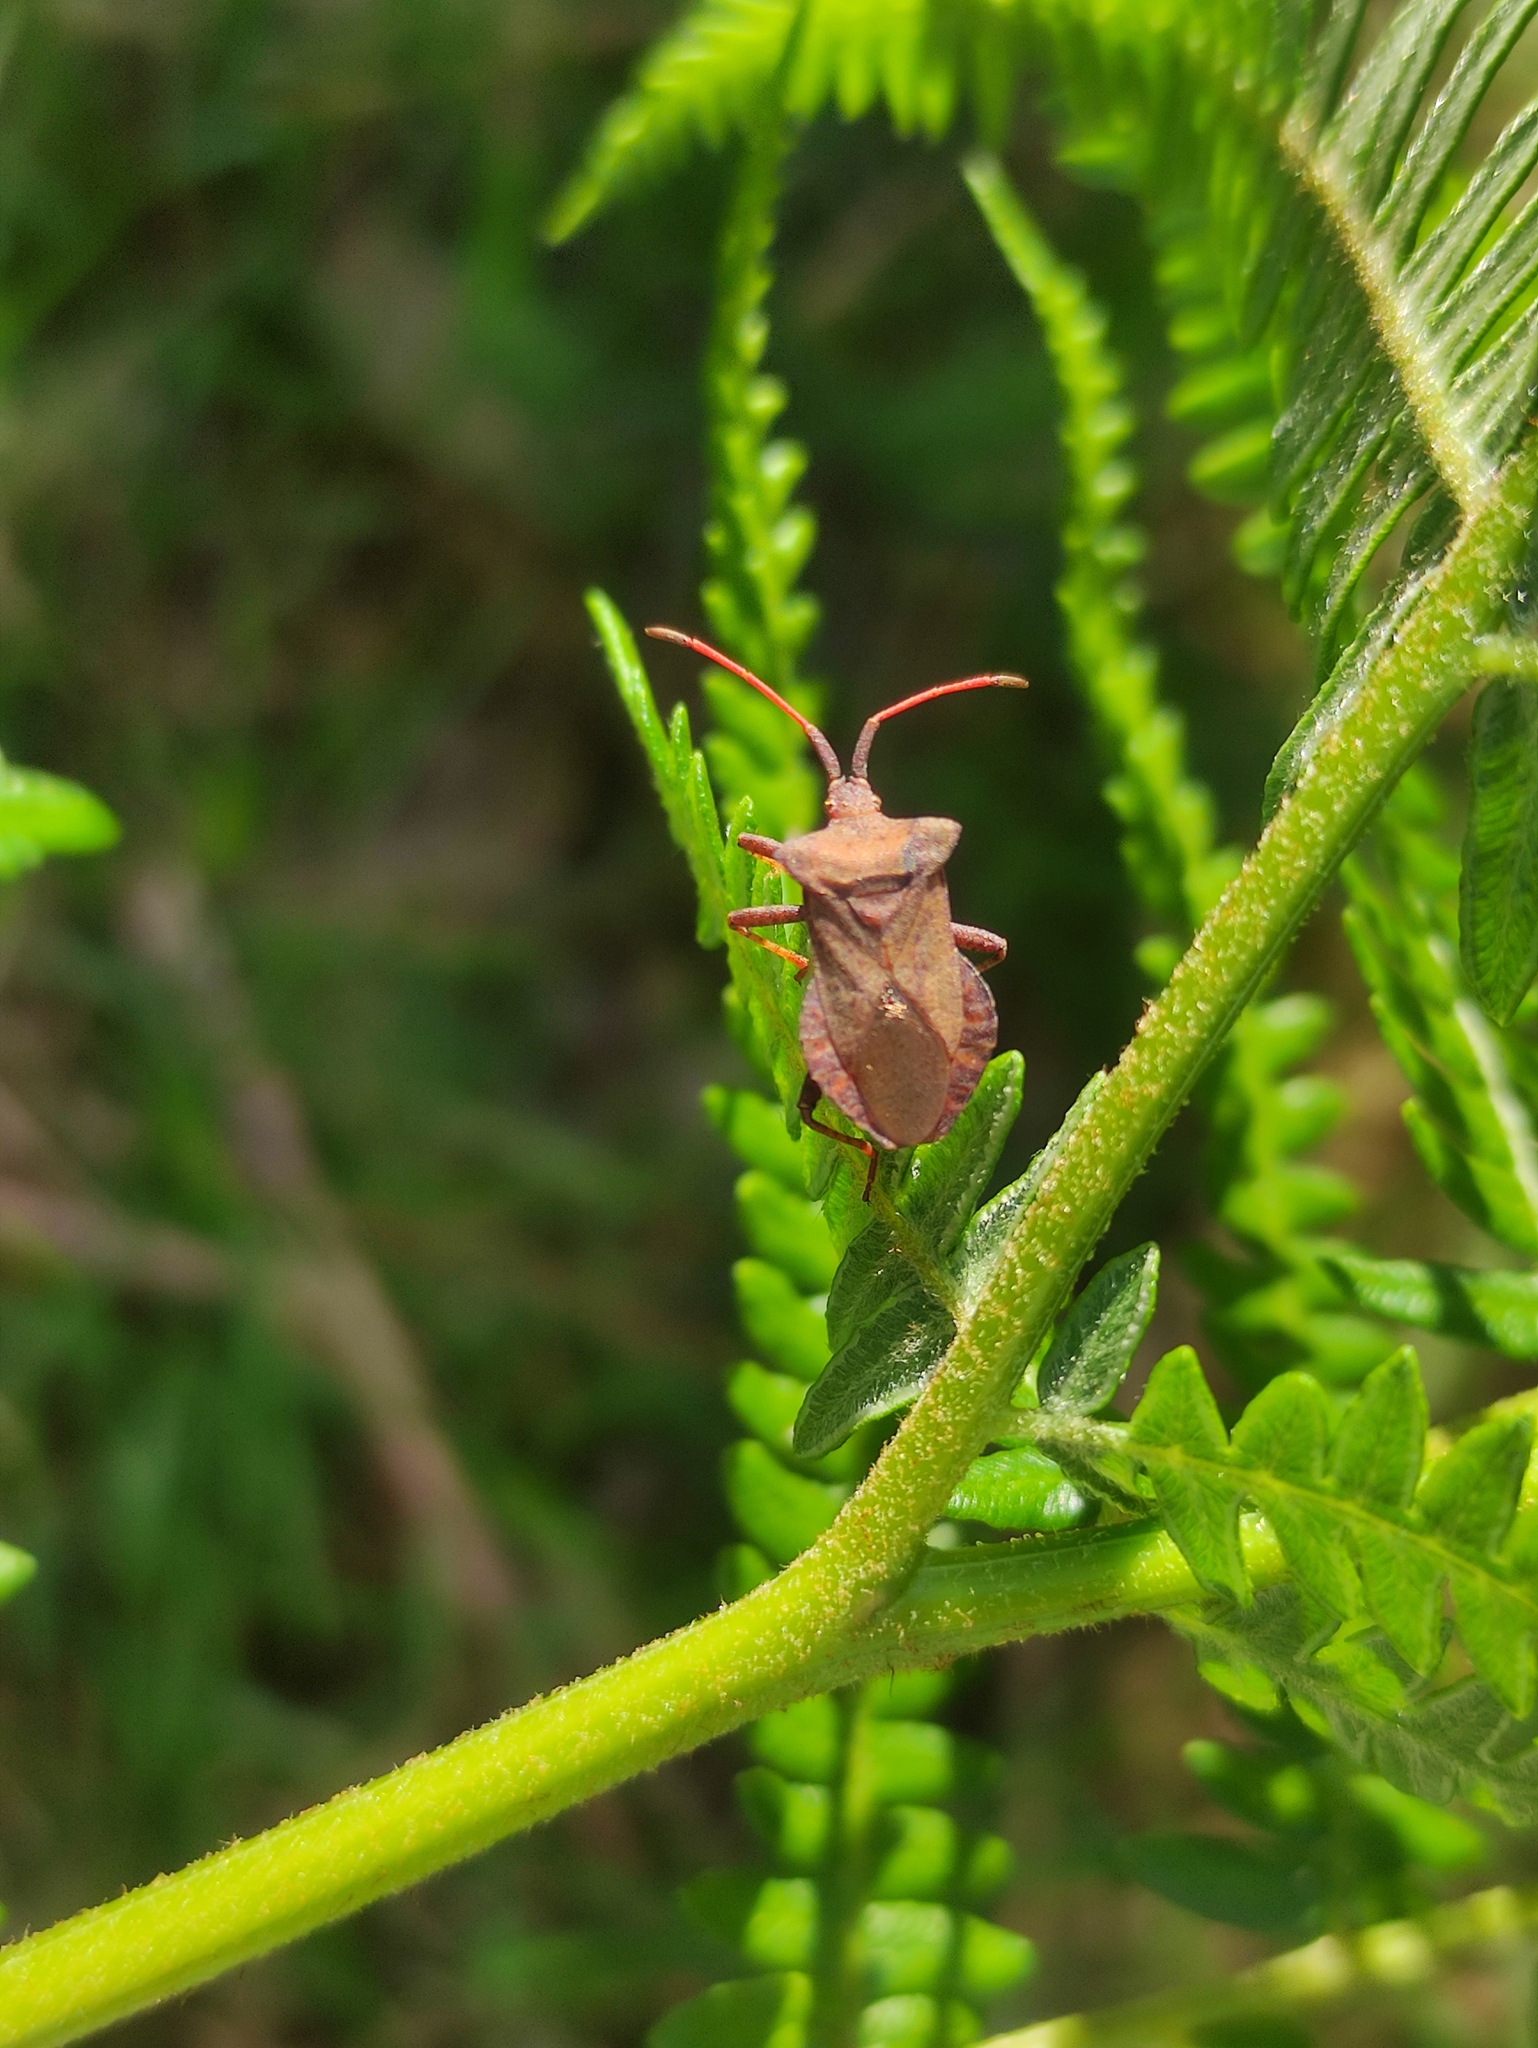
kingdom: Animalia
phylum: Arthropoda
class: Insecta
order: Hemiptera
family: Coreidae
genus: Coreus
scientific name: Coreus marginatus
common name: Dock bug
